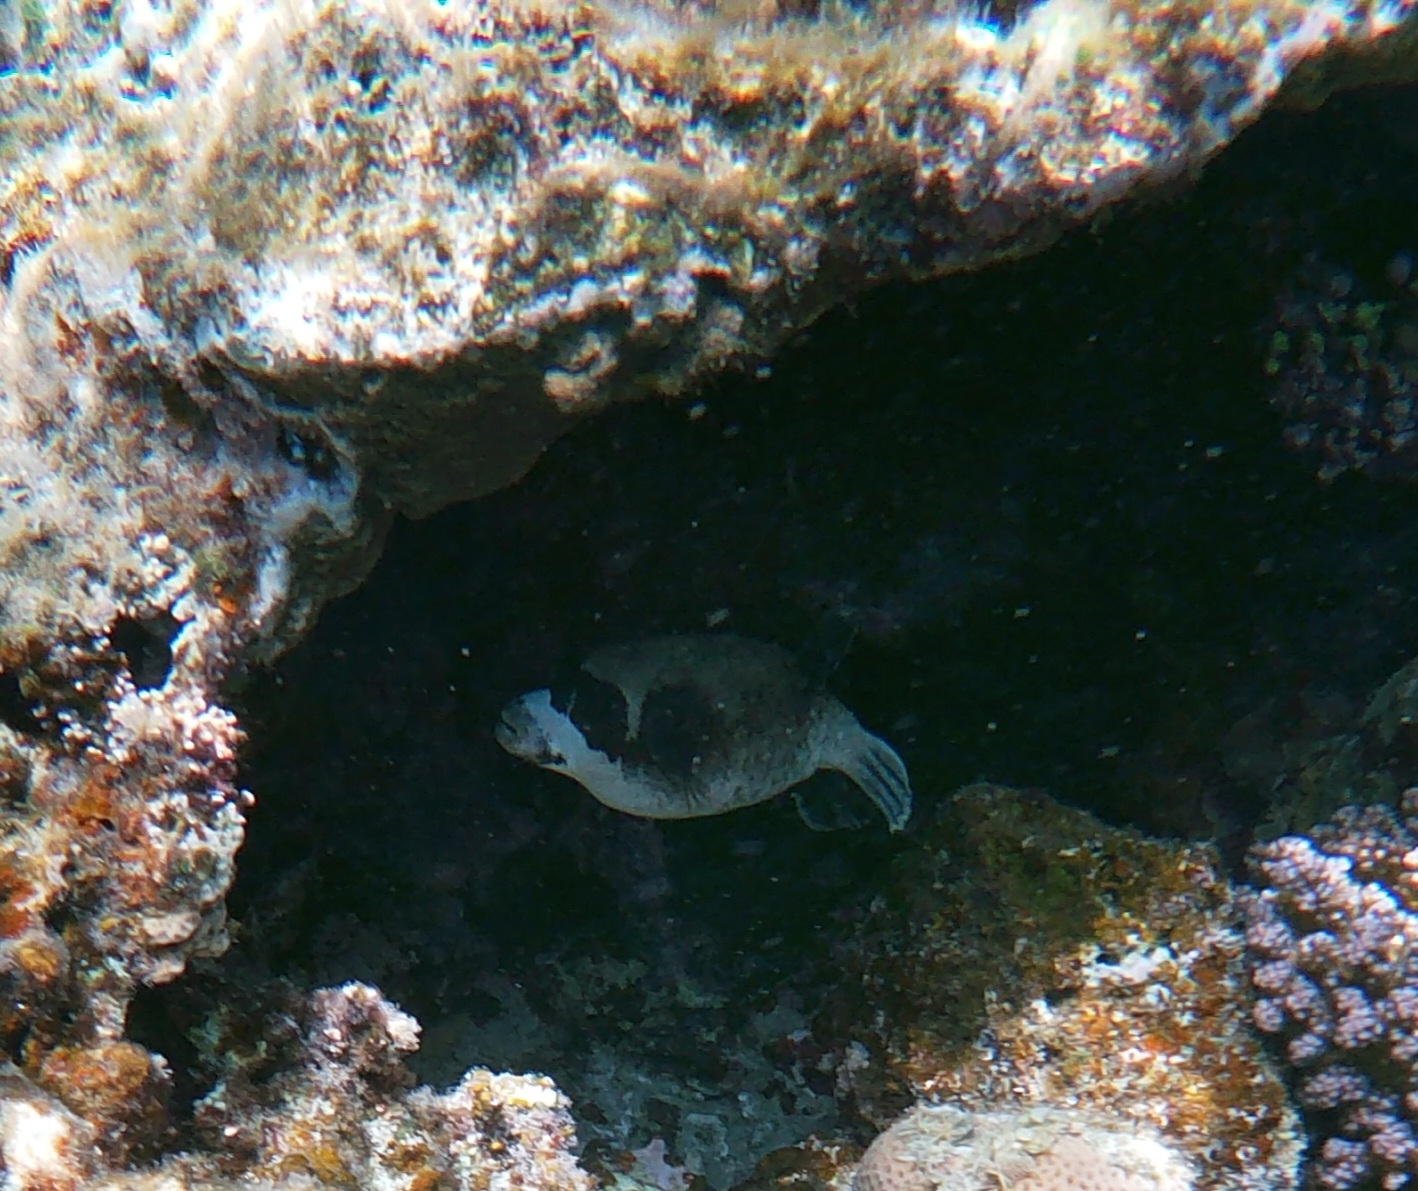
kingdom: Animalia
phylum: Chordata
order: Tetraodontiformes
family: Tetraodontidae
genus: Arothron
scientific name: Arothron diadematus
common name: Masked puffer
